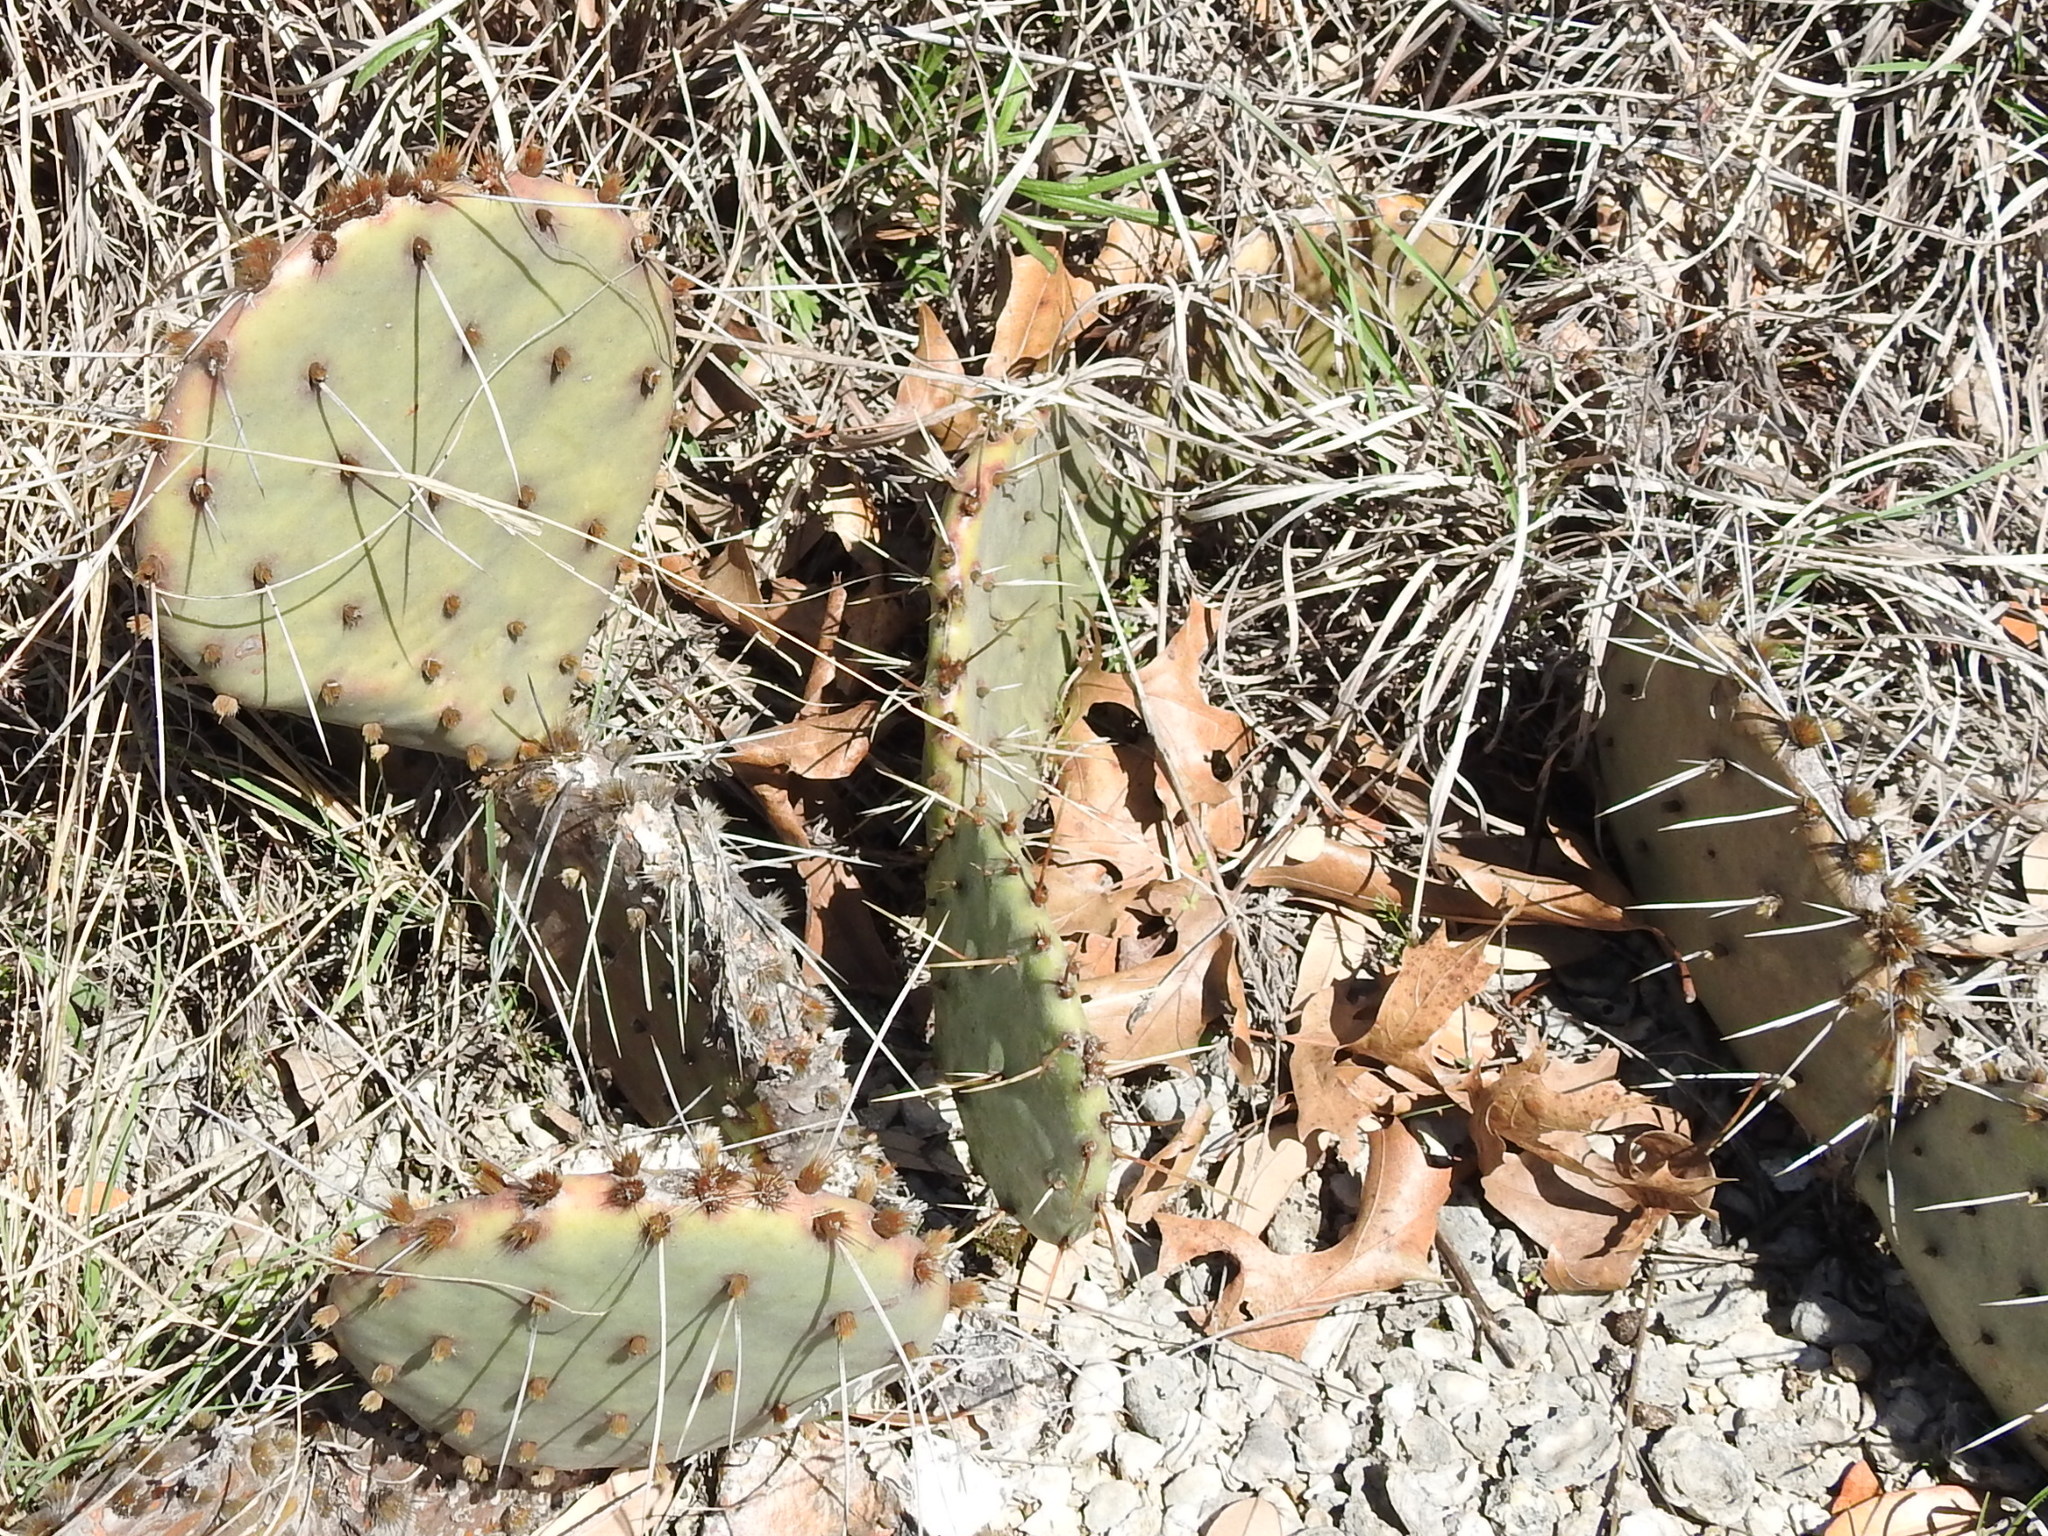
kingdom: Plantae
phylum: Tracheophyta
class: Magnoliopsida
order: Caryophyllales
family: Cactaceae
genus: Opuntia
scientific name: Opuntia macrorhiza
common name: Grassland pricklypear
